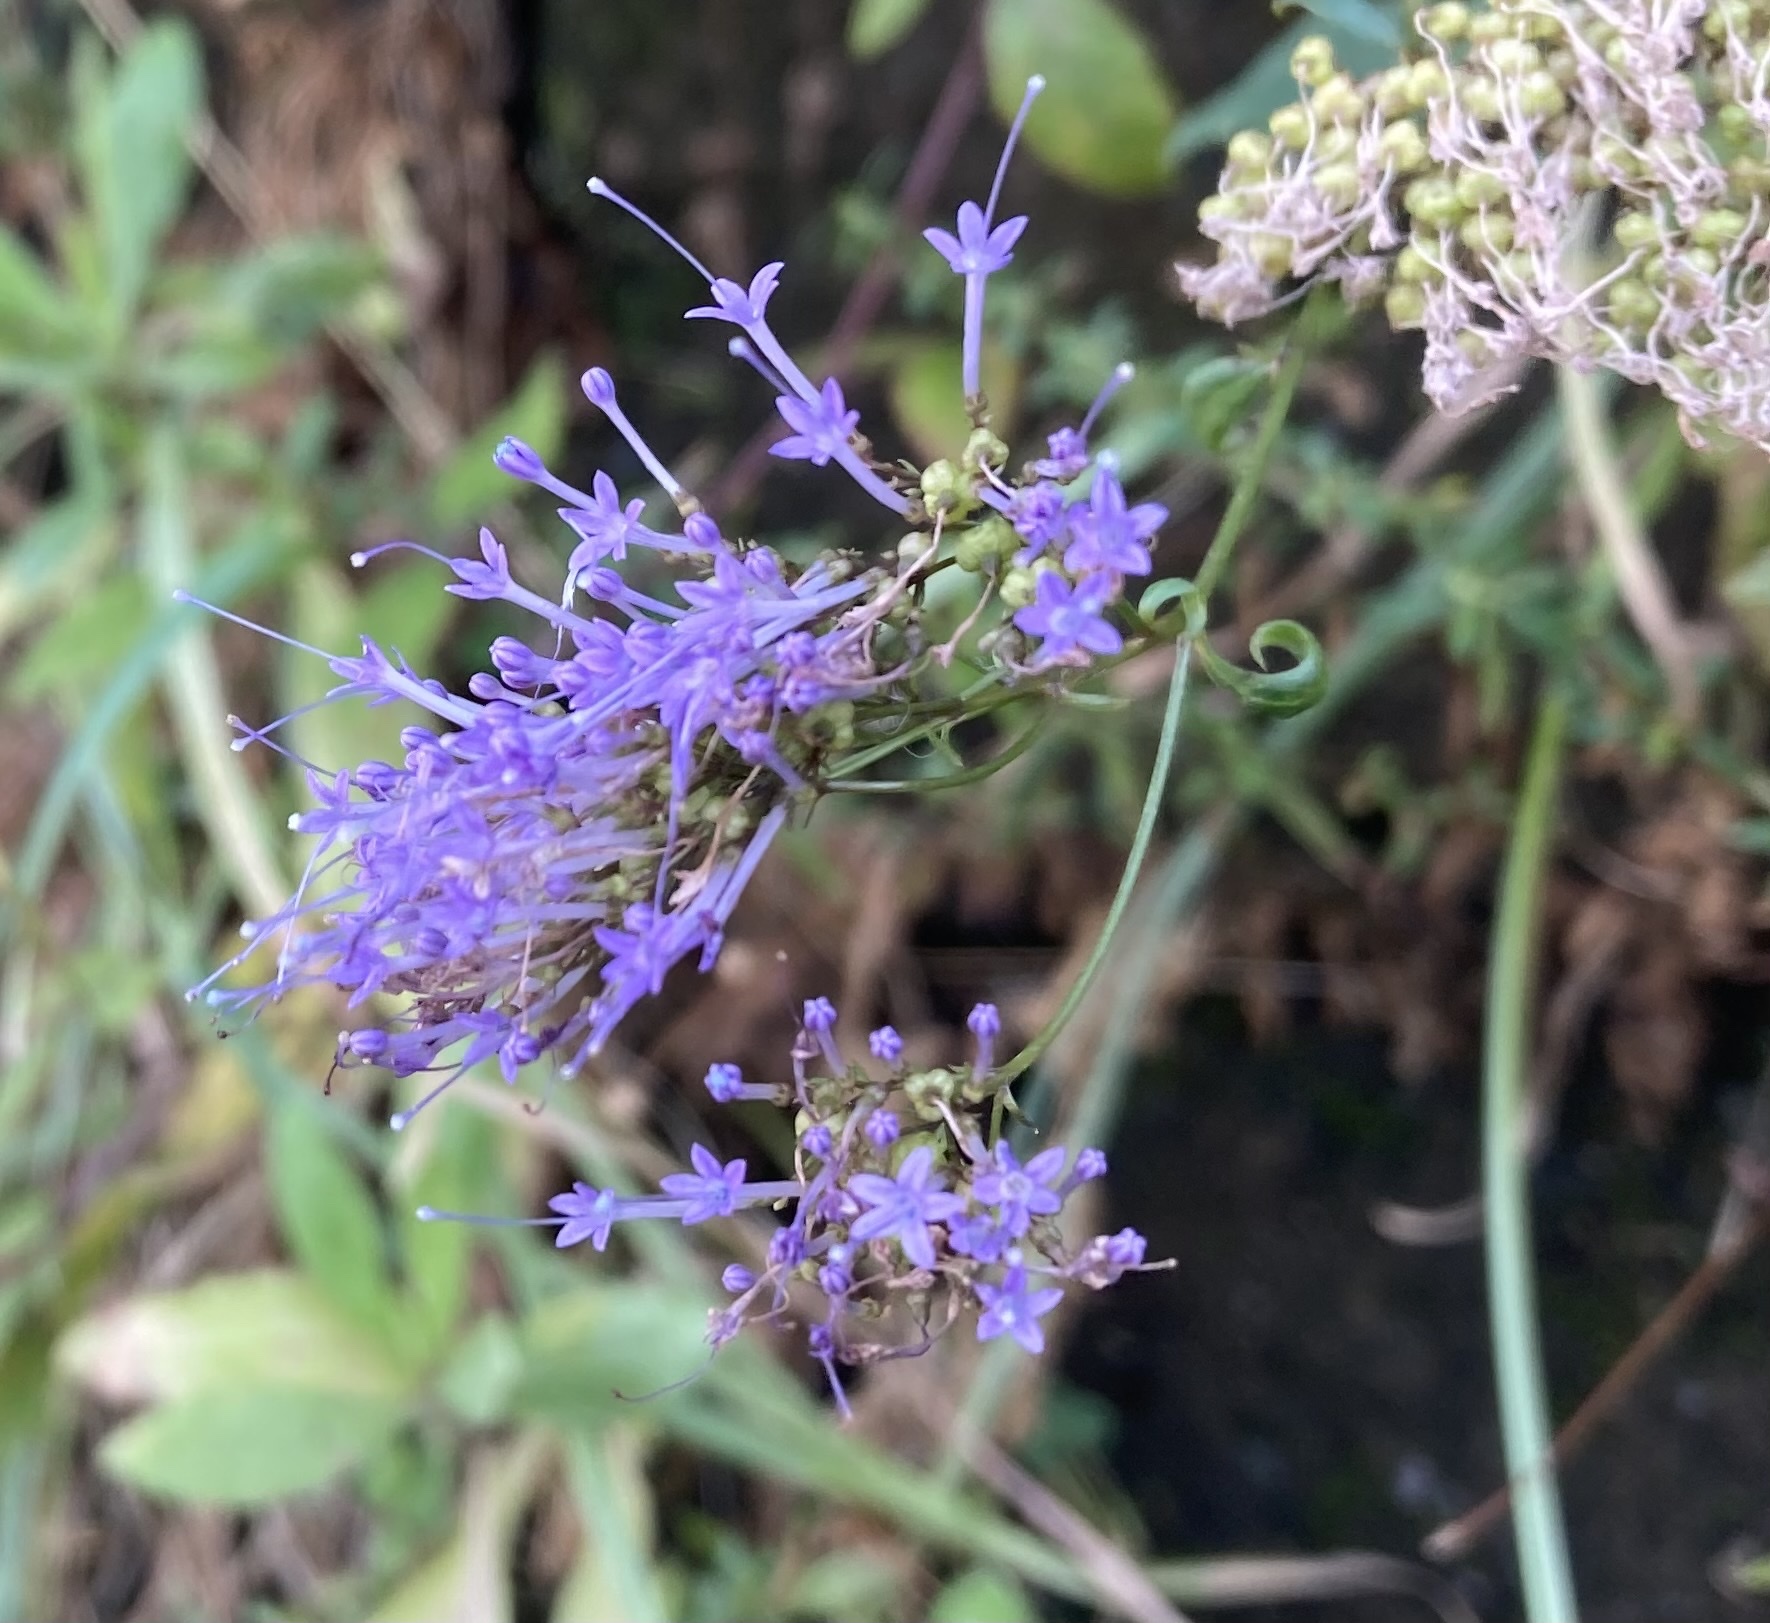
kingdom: Plantae
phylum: Tracheophyta
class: Magnoliopsida
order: Asterales
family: Campanulaceae
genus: Trachelium
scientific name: Trachelium caeruleum
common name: Throatwort
